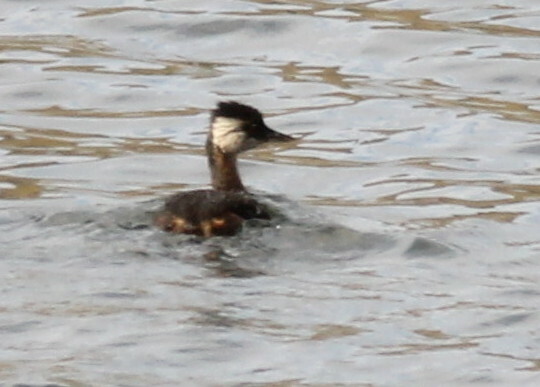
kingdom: Animalia
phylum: Chordata
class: Aves
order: Podicipediformes
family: Podicipedidae
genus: Rollandia
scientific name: Rollandia rolland
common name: White-tufted grebe
